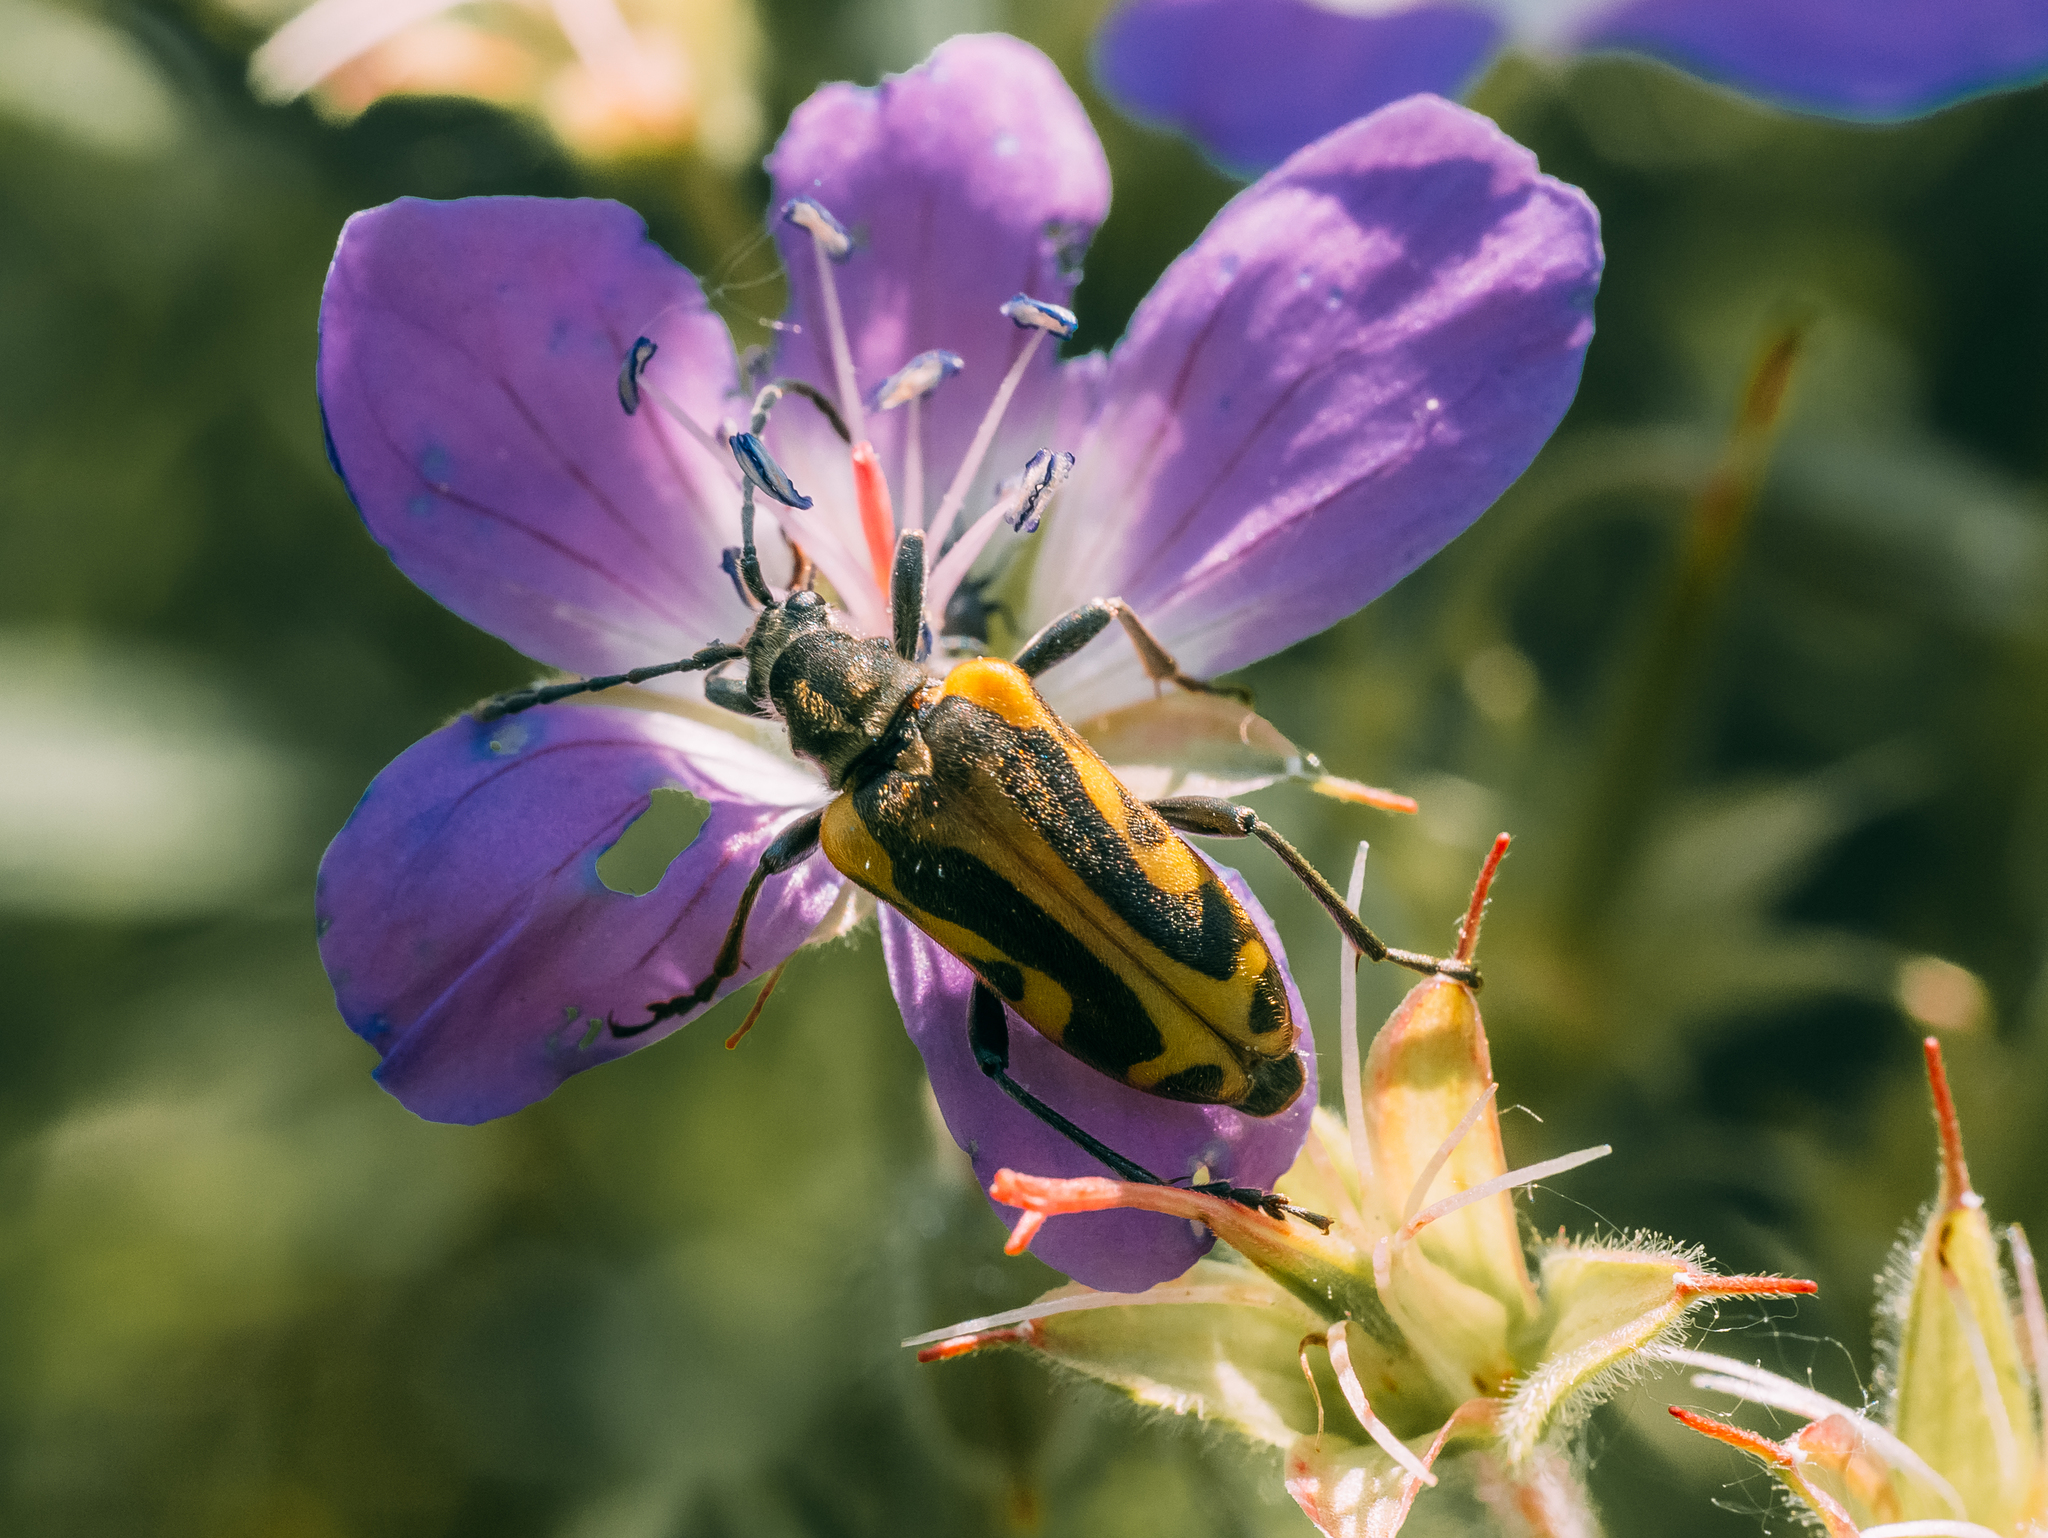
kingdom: Animalia
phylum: Arthropoda
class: Insecta
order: Coleoptera
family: Cerambycidae
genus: Brachyta
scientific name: Brachyta interrogationis
